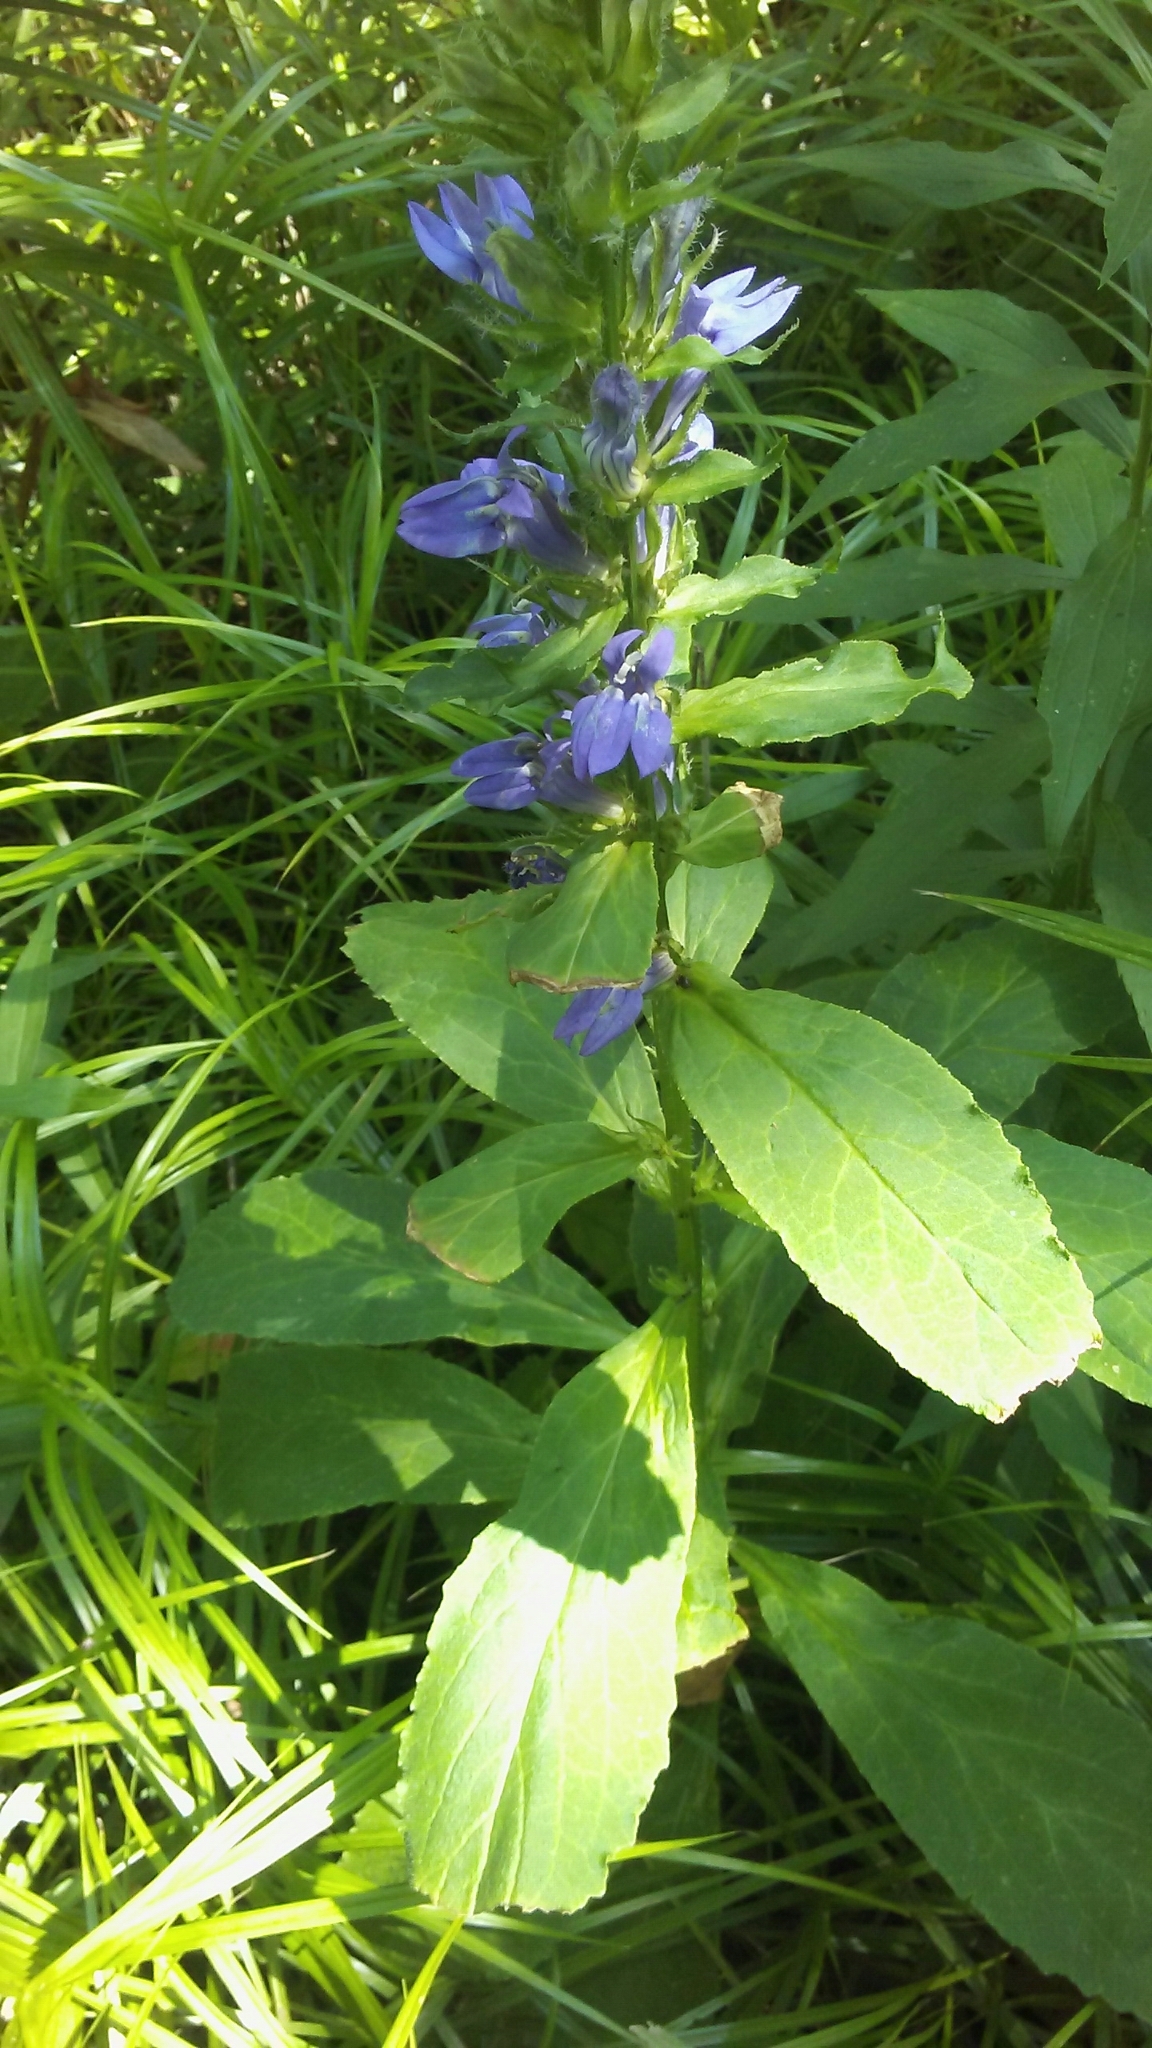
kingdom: Plantae
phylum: Tracheophyta
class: Magnoliopsida
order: Asterales
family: Campanulaceae
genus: Lobelia
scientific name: Lobelia siphilitica
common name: Great lobelia
